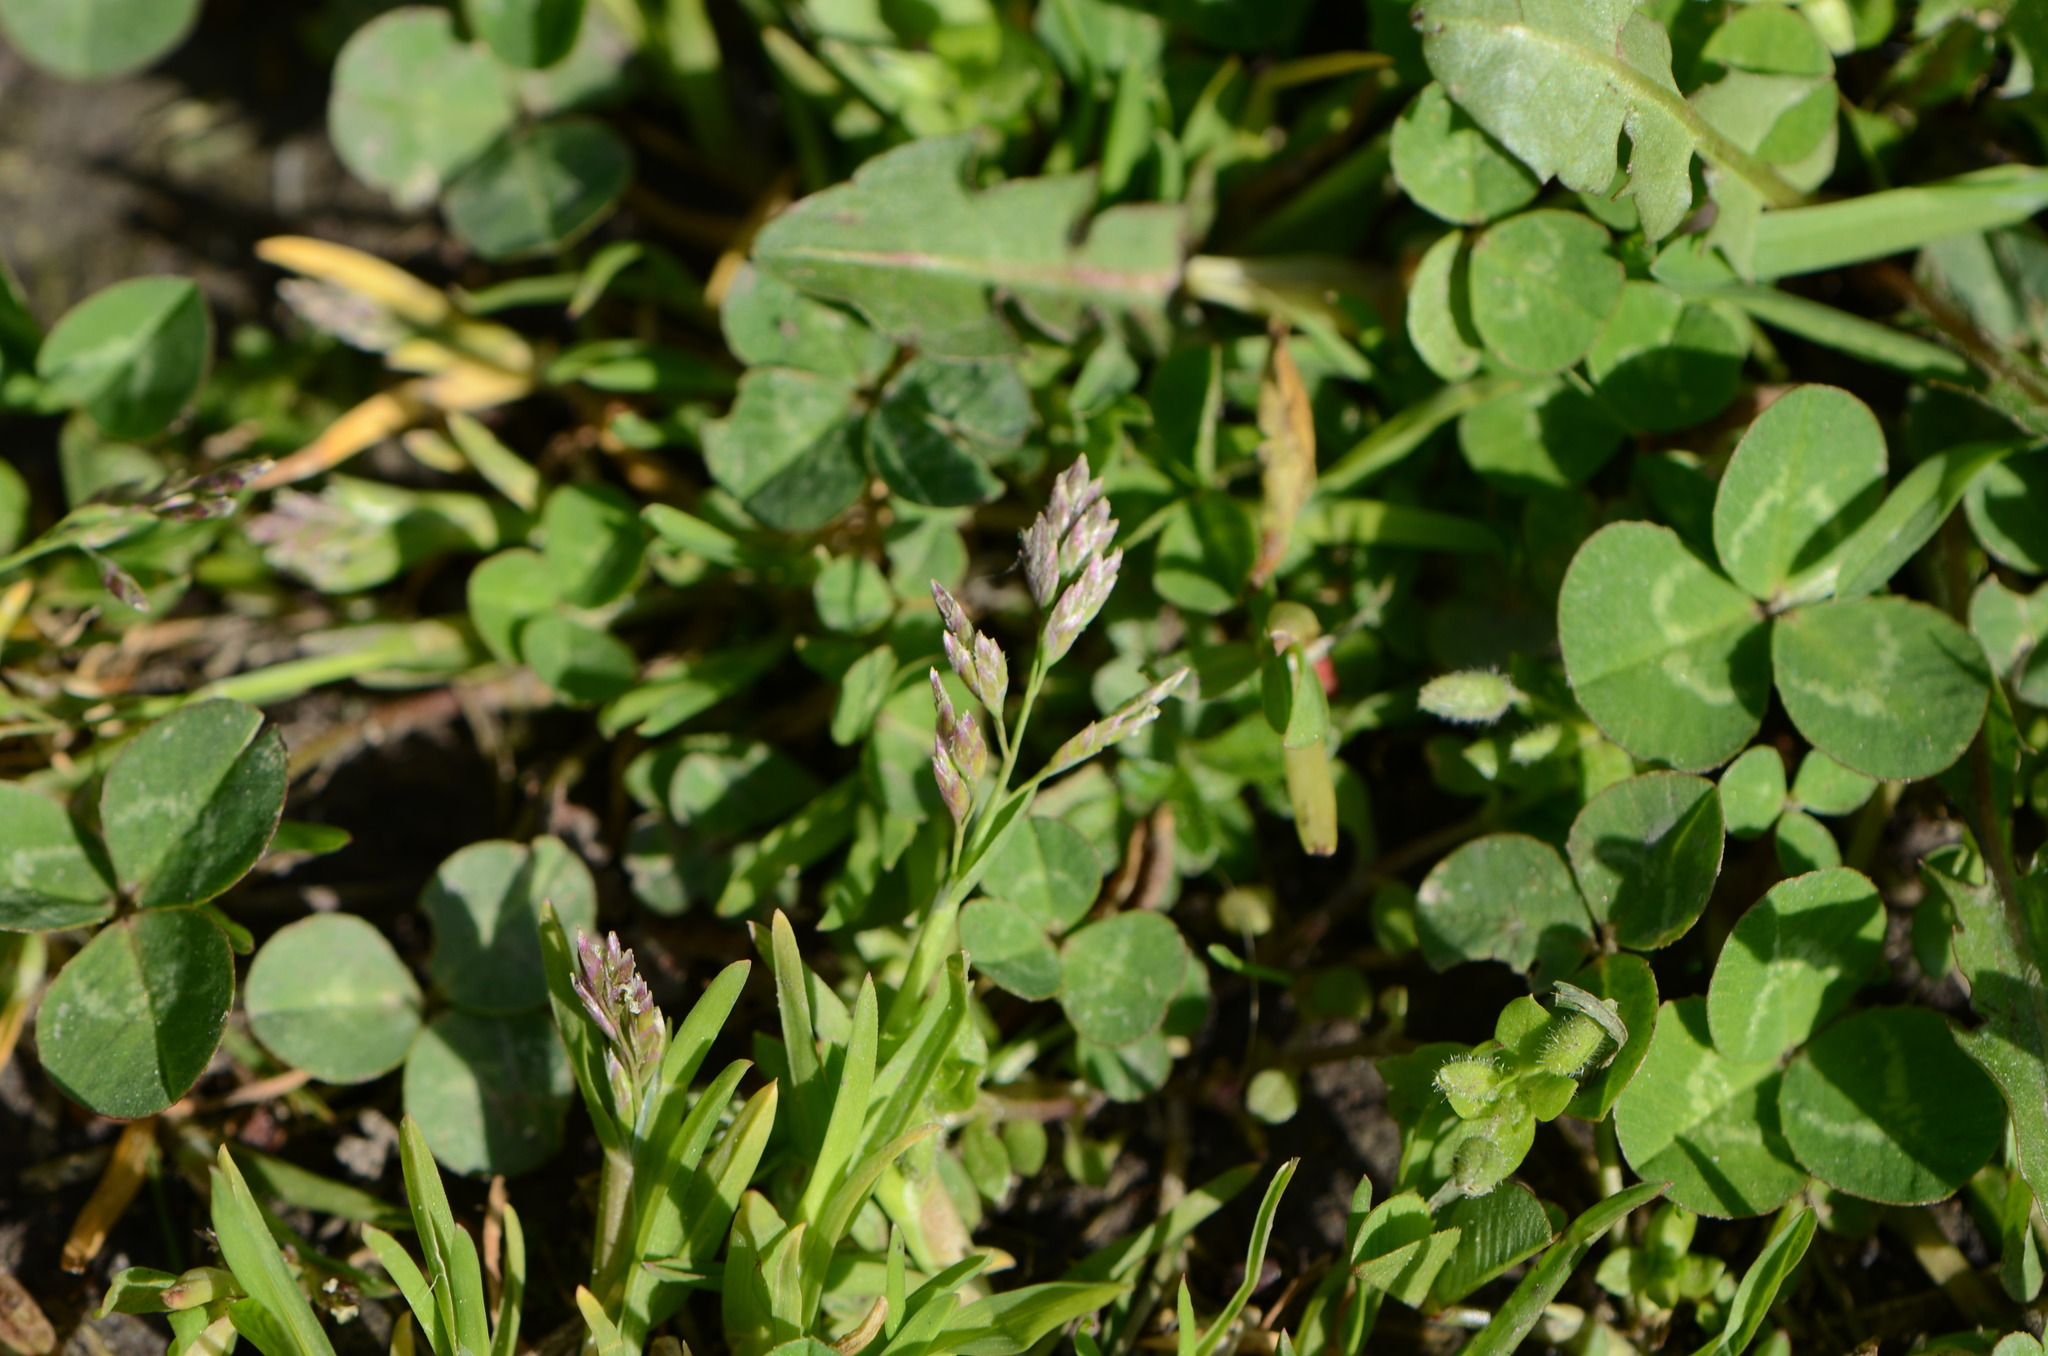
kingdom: Plantae
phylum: Tracheophyta
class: Liliopsida
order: Poales
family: Poaceae
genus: Poa
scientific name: Poa annua
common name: Annual bluegrass
